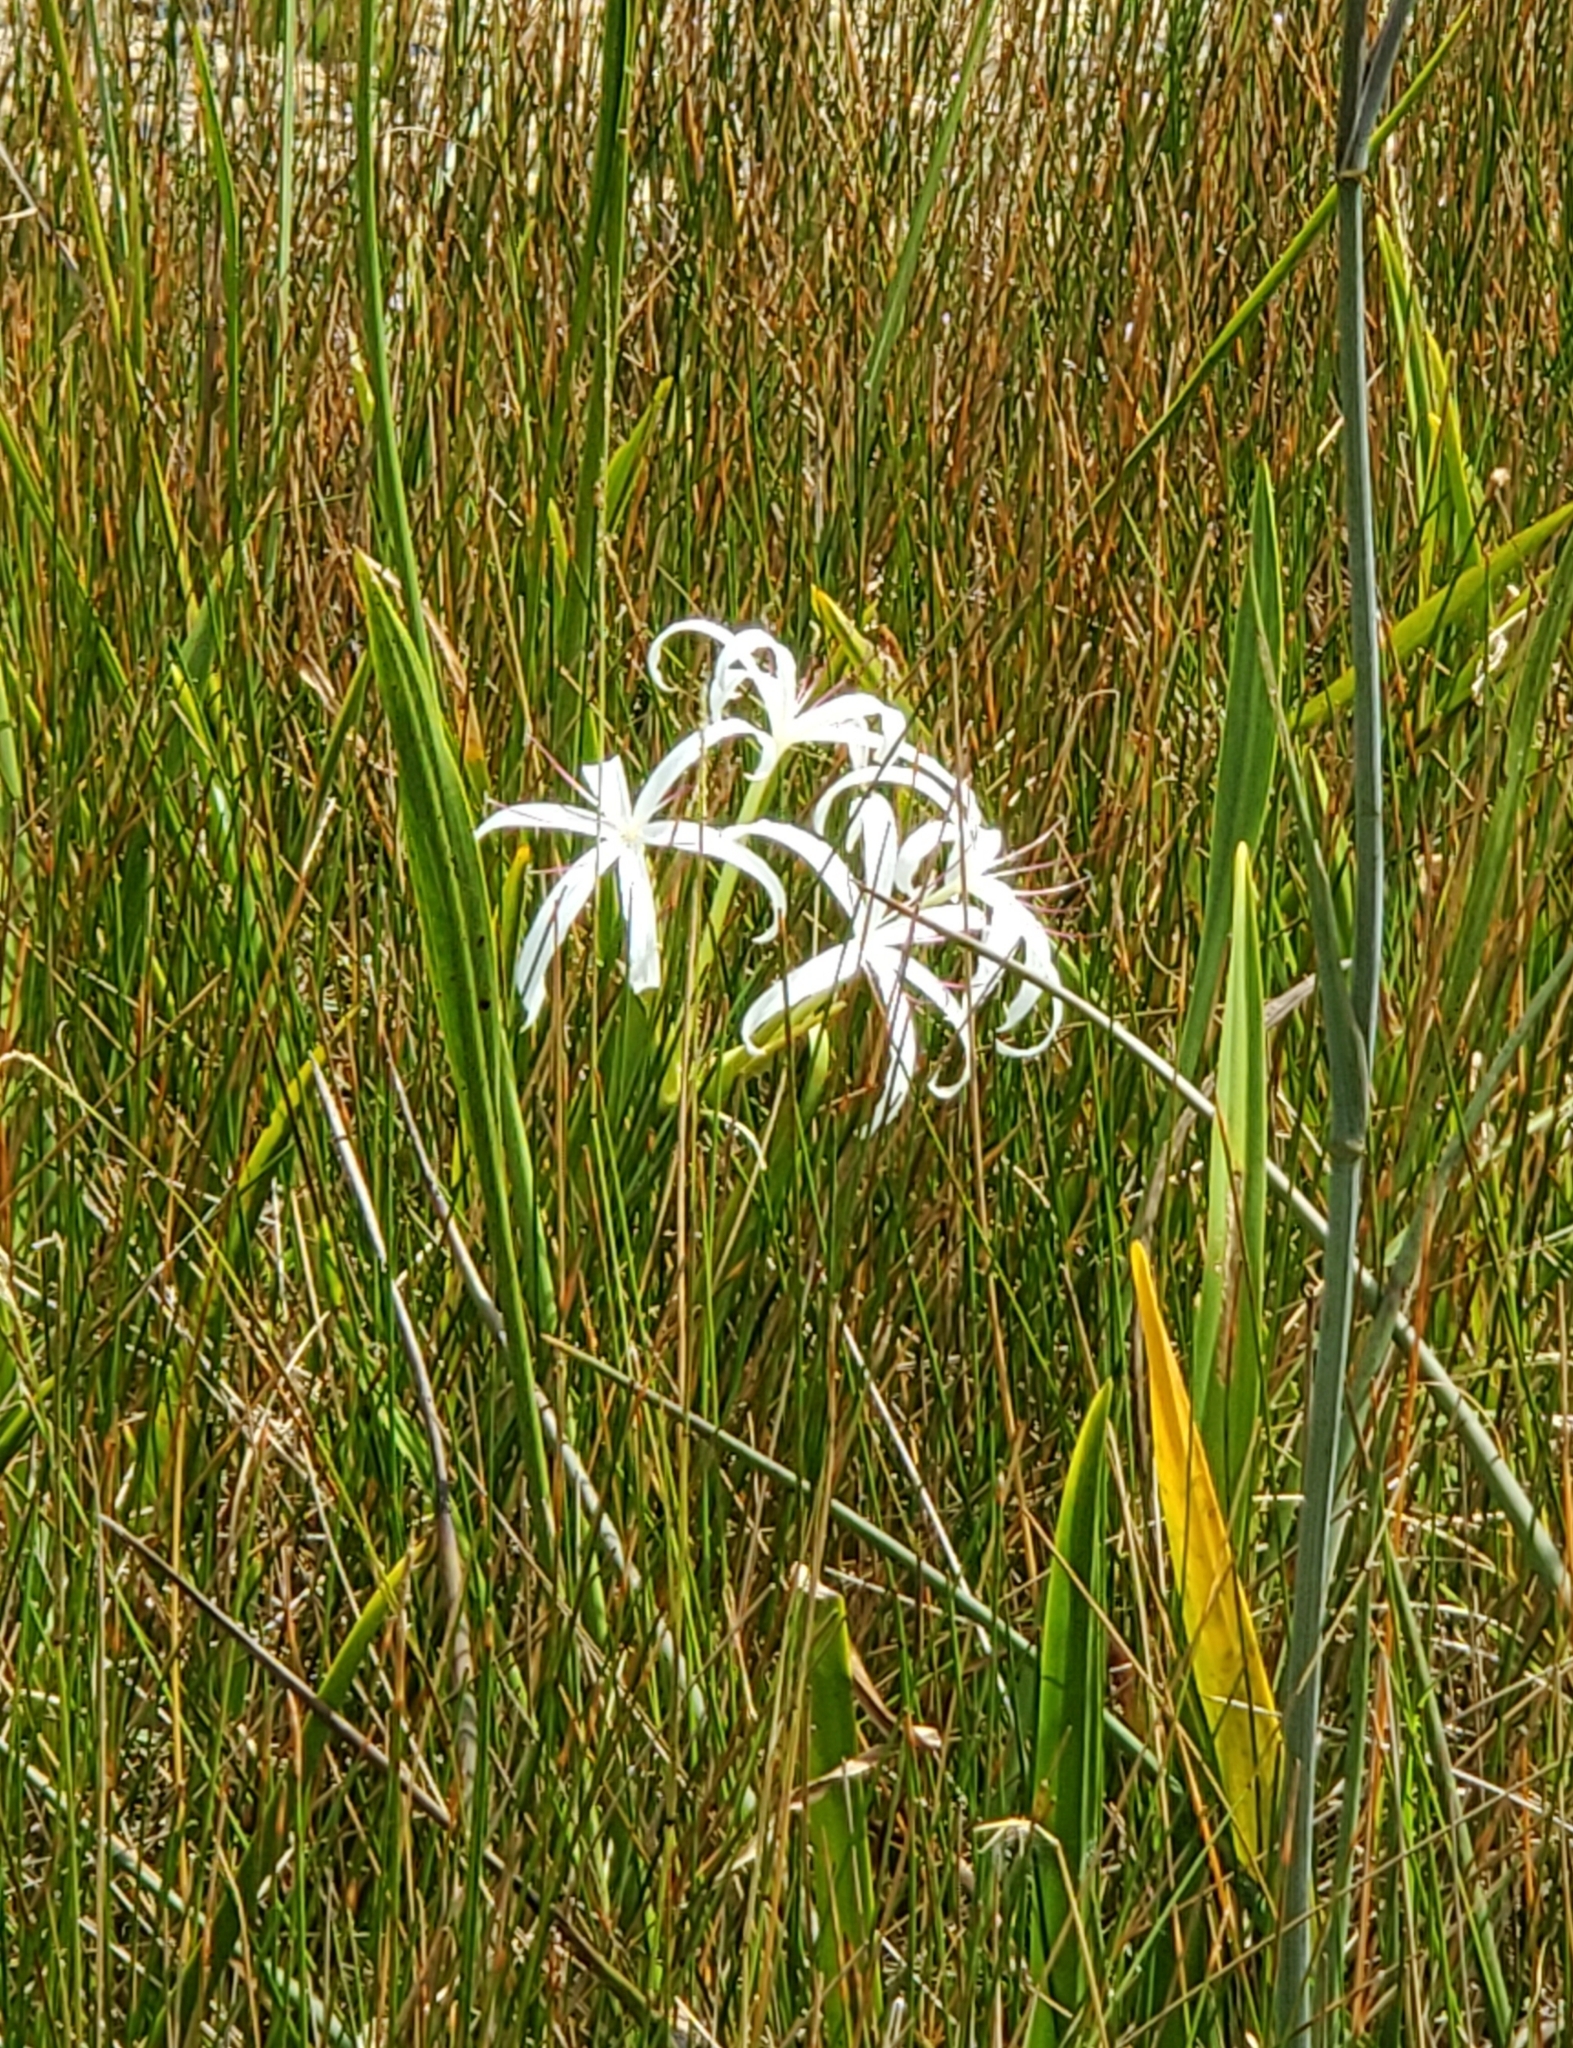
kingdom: Plantae
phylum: Tracheophyta
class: Liliopsida
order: Asparagales
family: Amaryllidaceae
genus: Crinum
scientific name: Crinum americanum
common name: Florida swamp-lily
